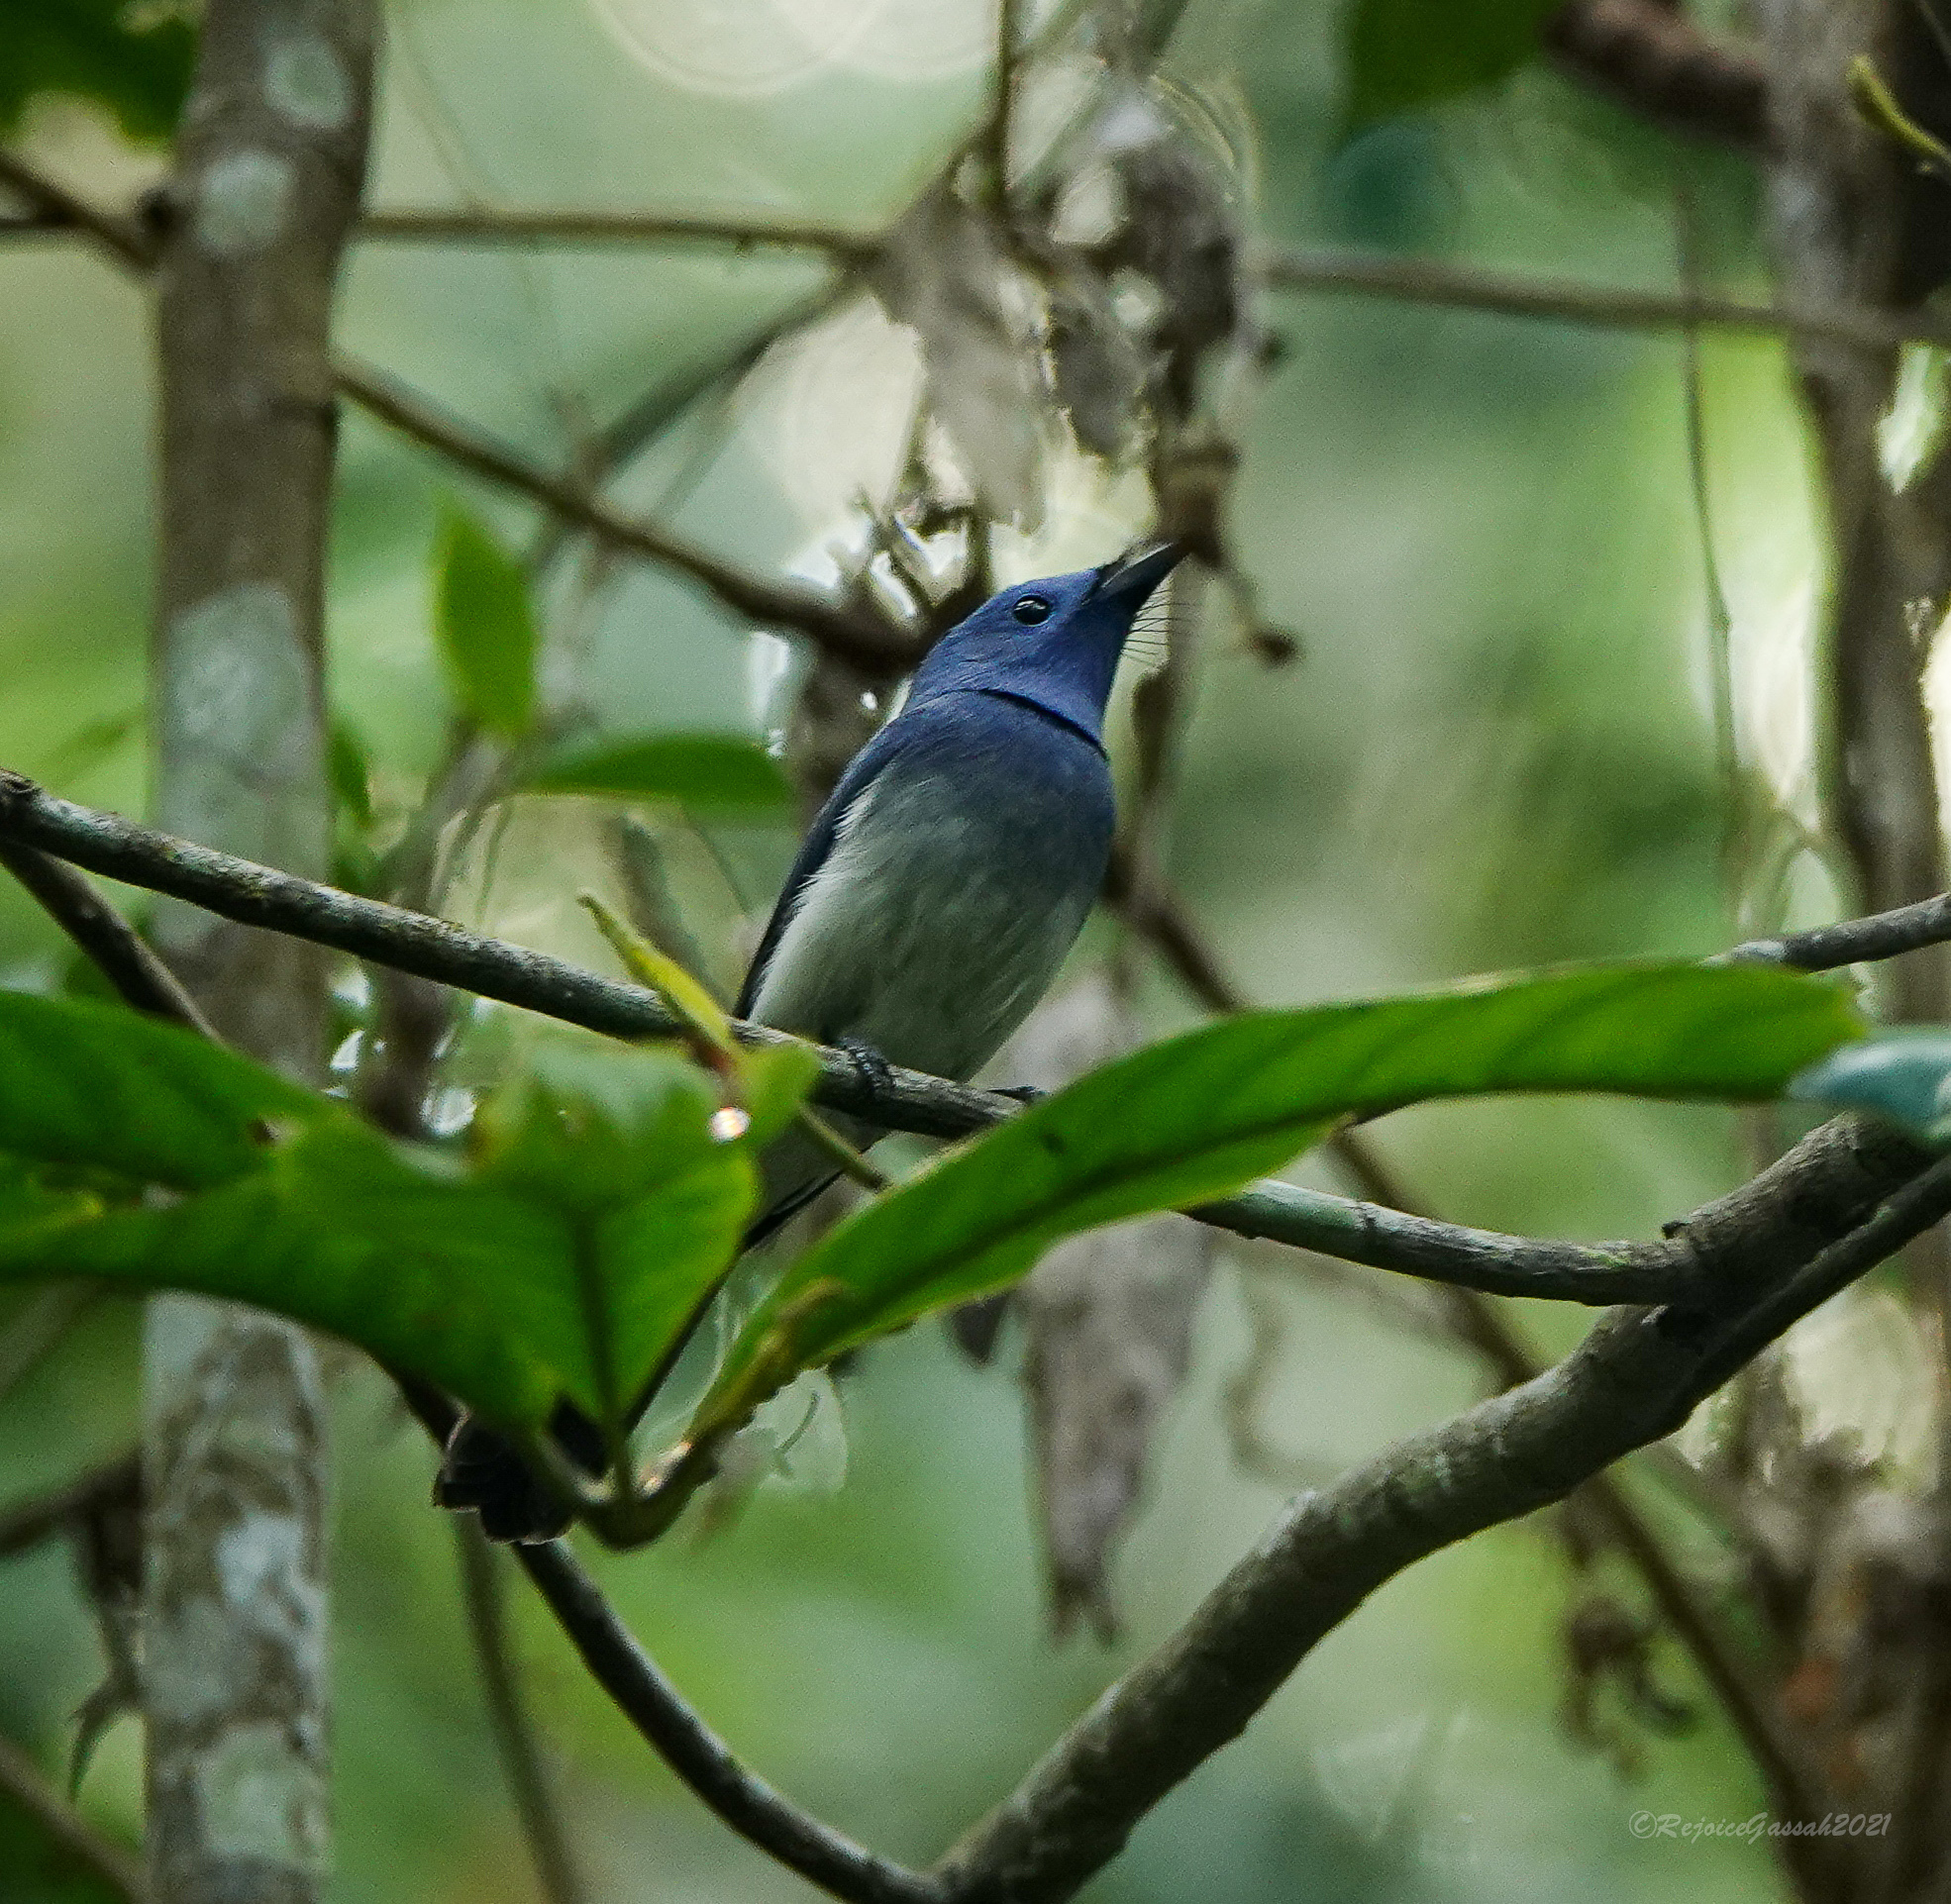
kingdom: Animalia
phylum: Chordata
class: Aves
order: Passeriformes
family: Monarchidae
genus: Hypothymis
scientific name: Hypothymis azurea
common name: Black-naped monarch
